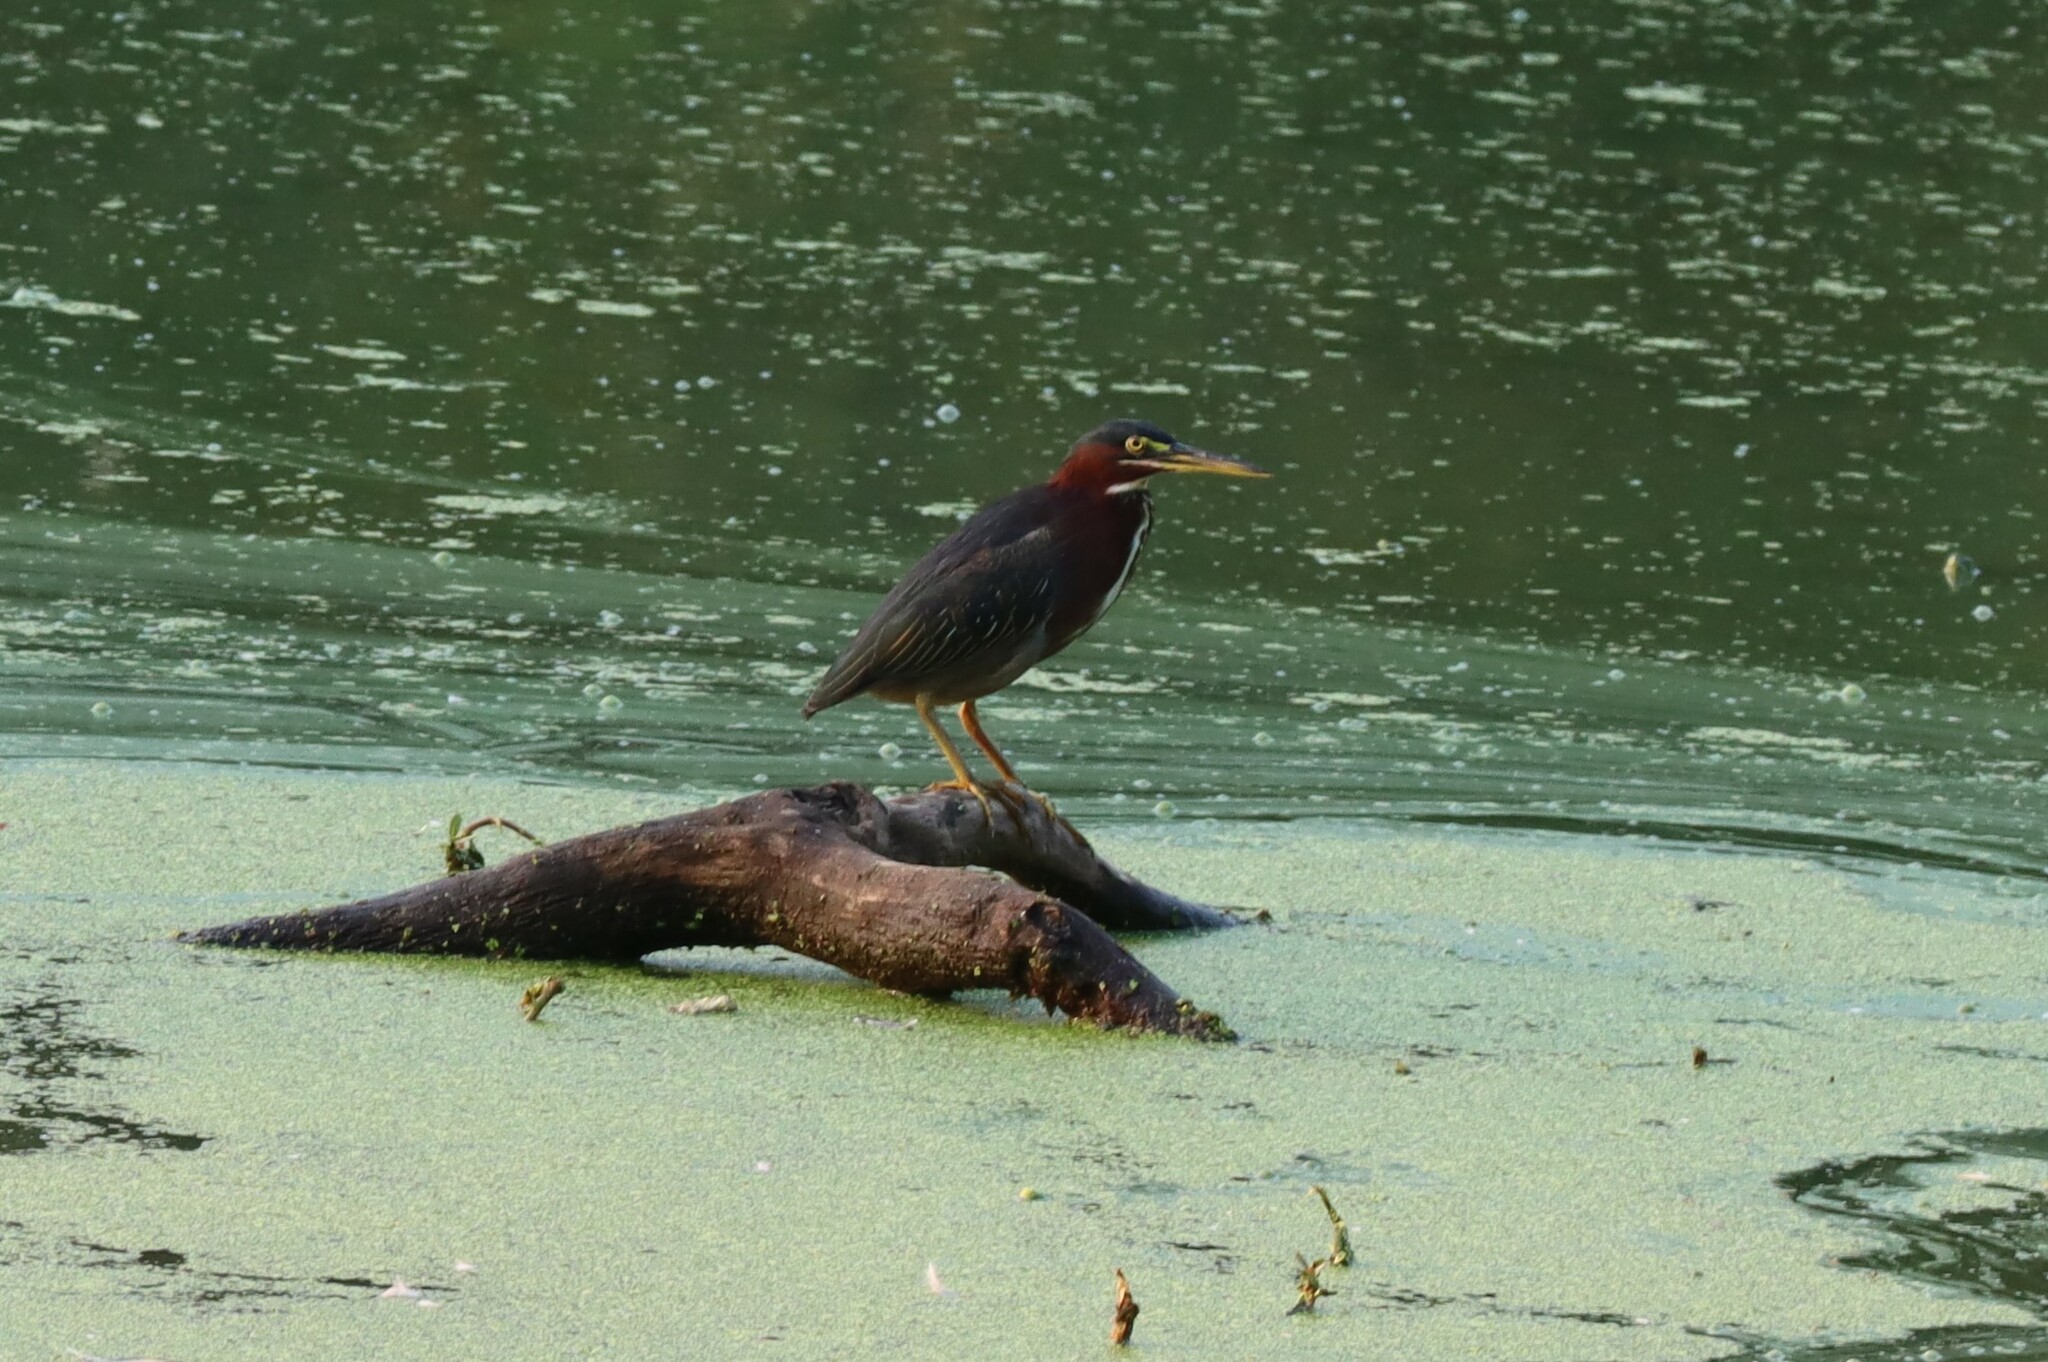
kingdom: Animalia
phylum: Chordata
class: Aves
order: Pelecaniformes
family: Ardeidae
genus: Butorides
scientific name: Butorides virescens
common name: Green heron
